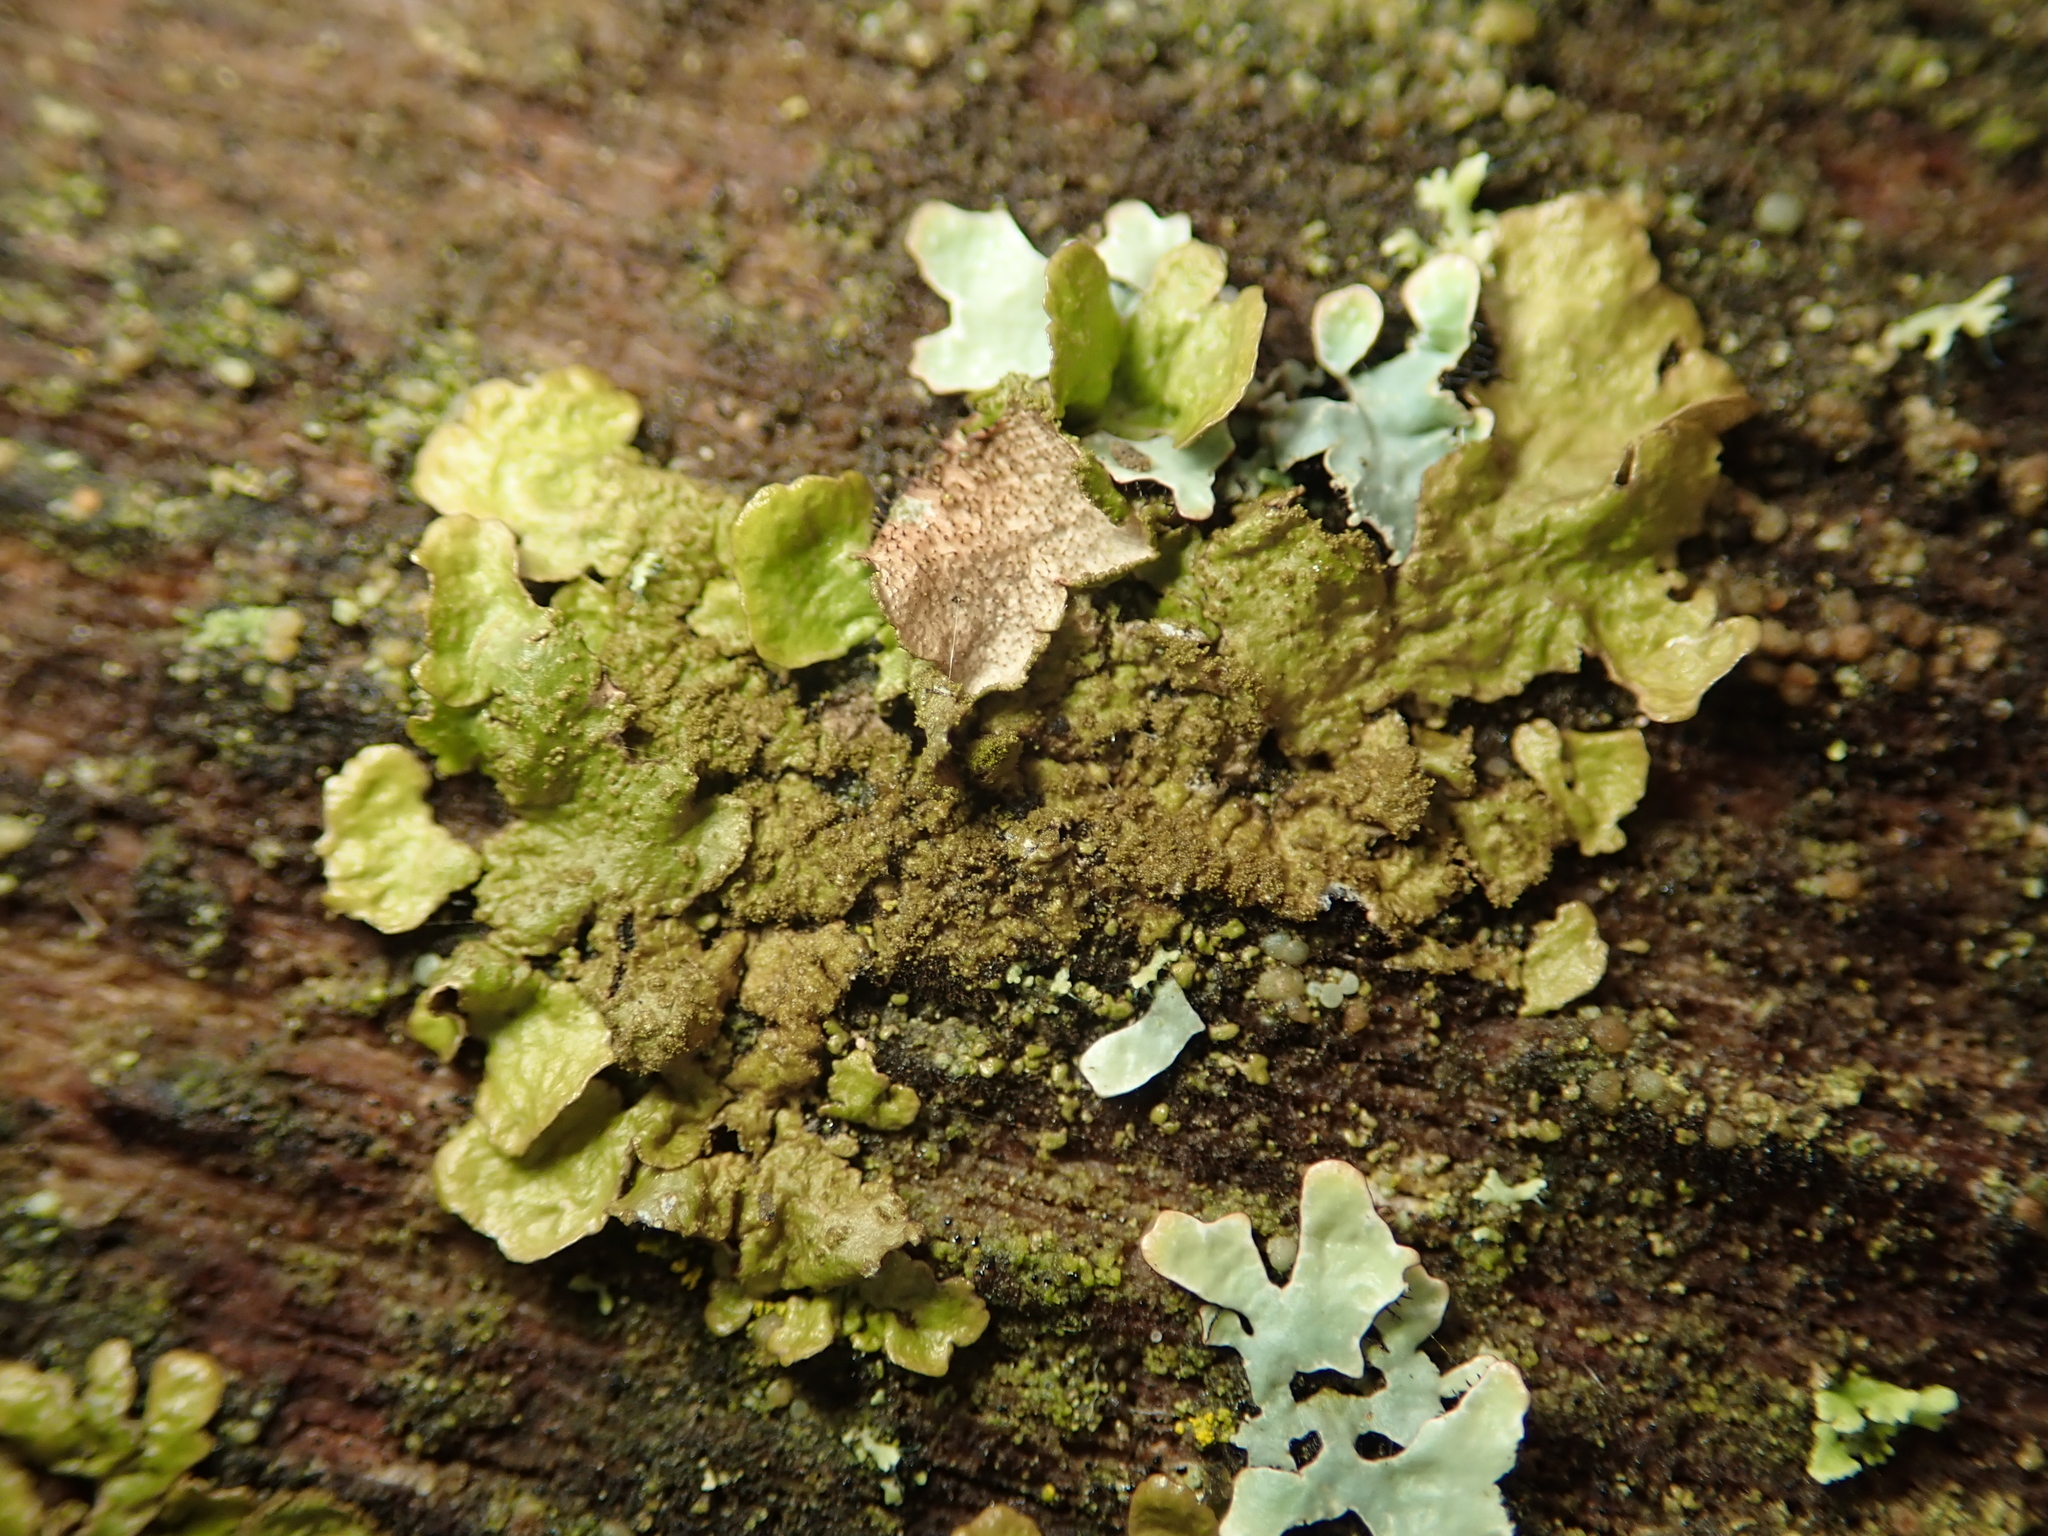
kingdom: Fungi
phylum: Ascomycota
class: Lecanoromycetes
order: Lecanorales
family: Parmeliaceae
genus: Melanelixia
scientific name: Melanelixia subaurifera
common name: Abraded camouflage lichen
